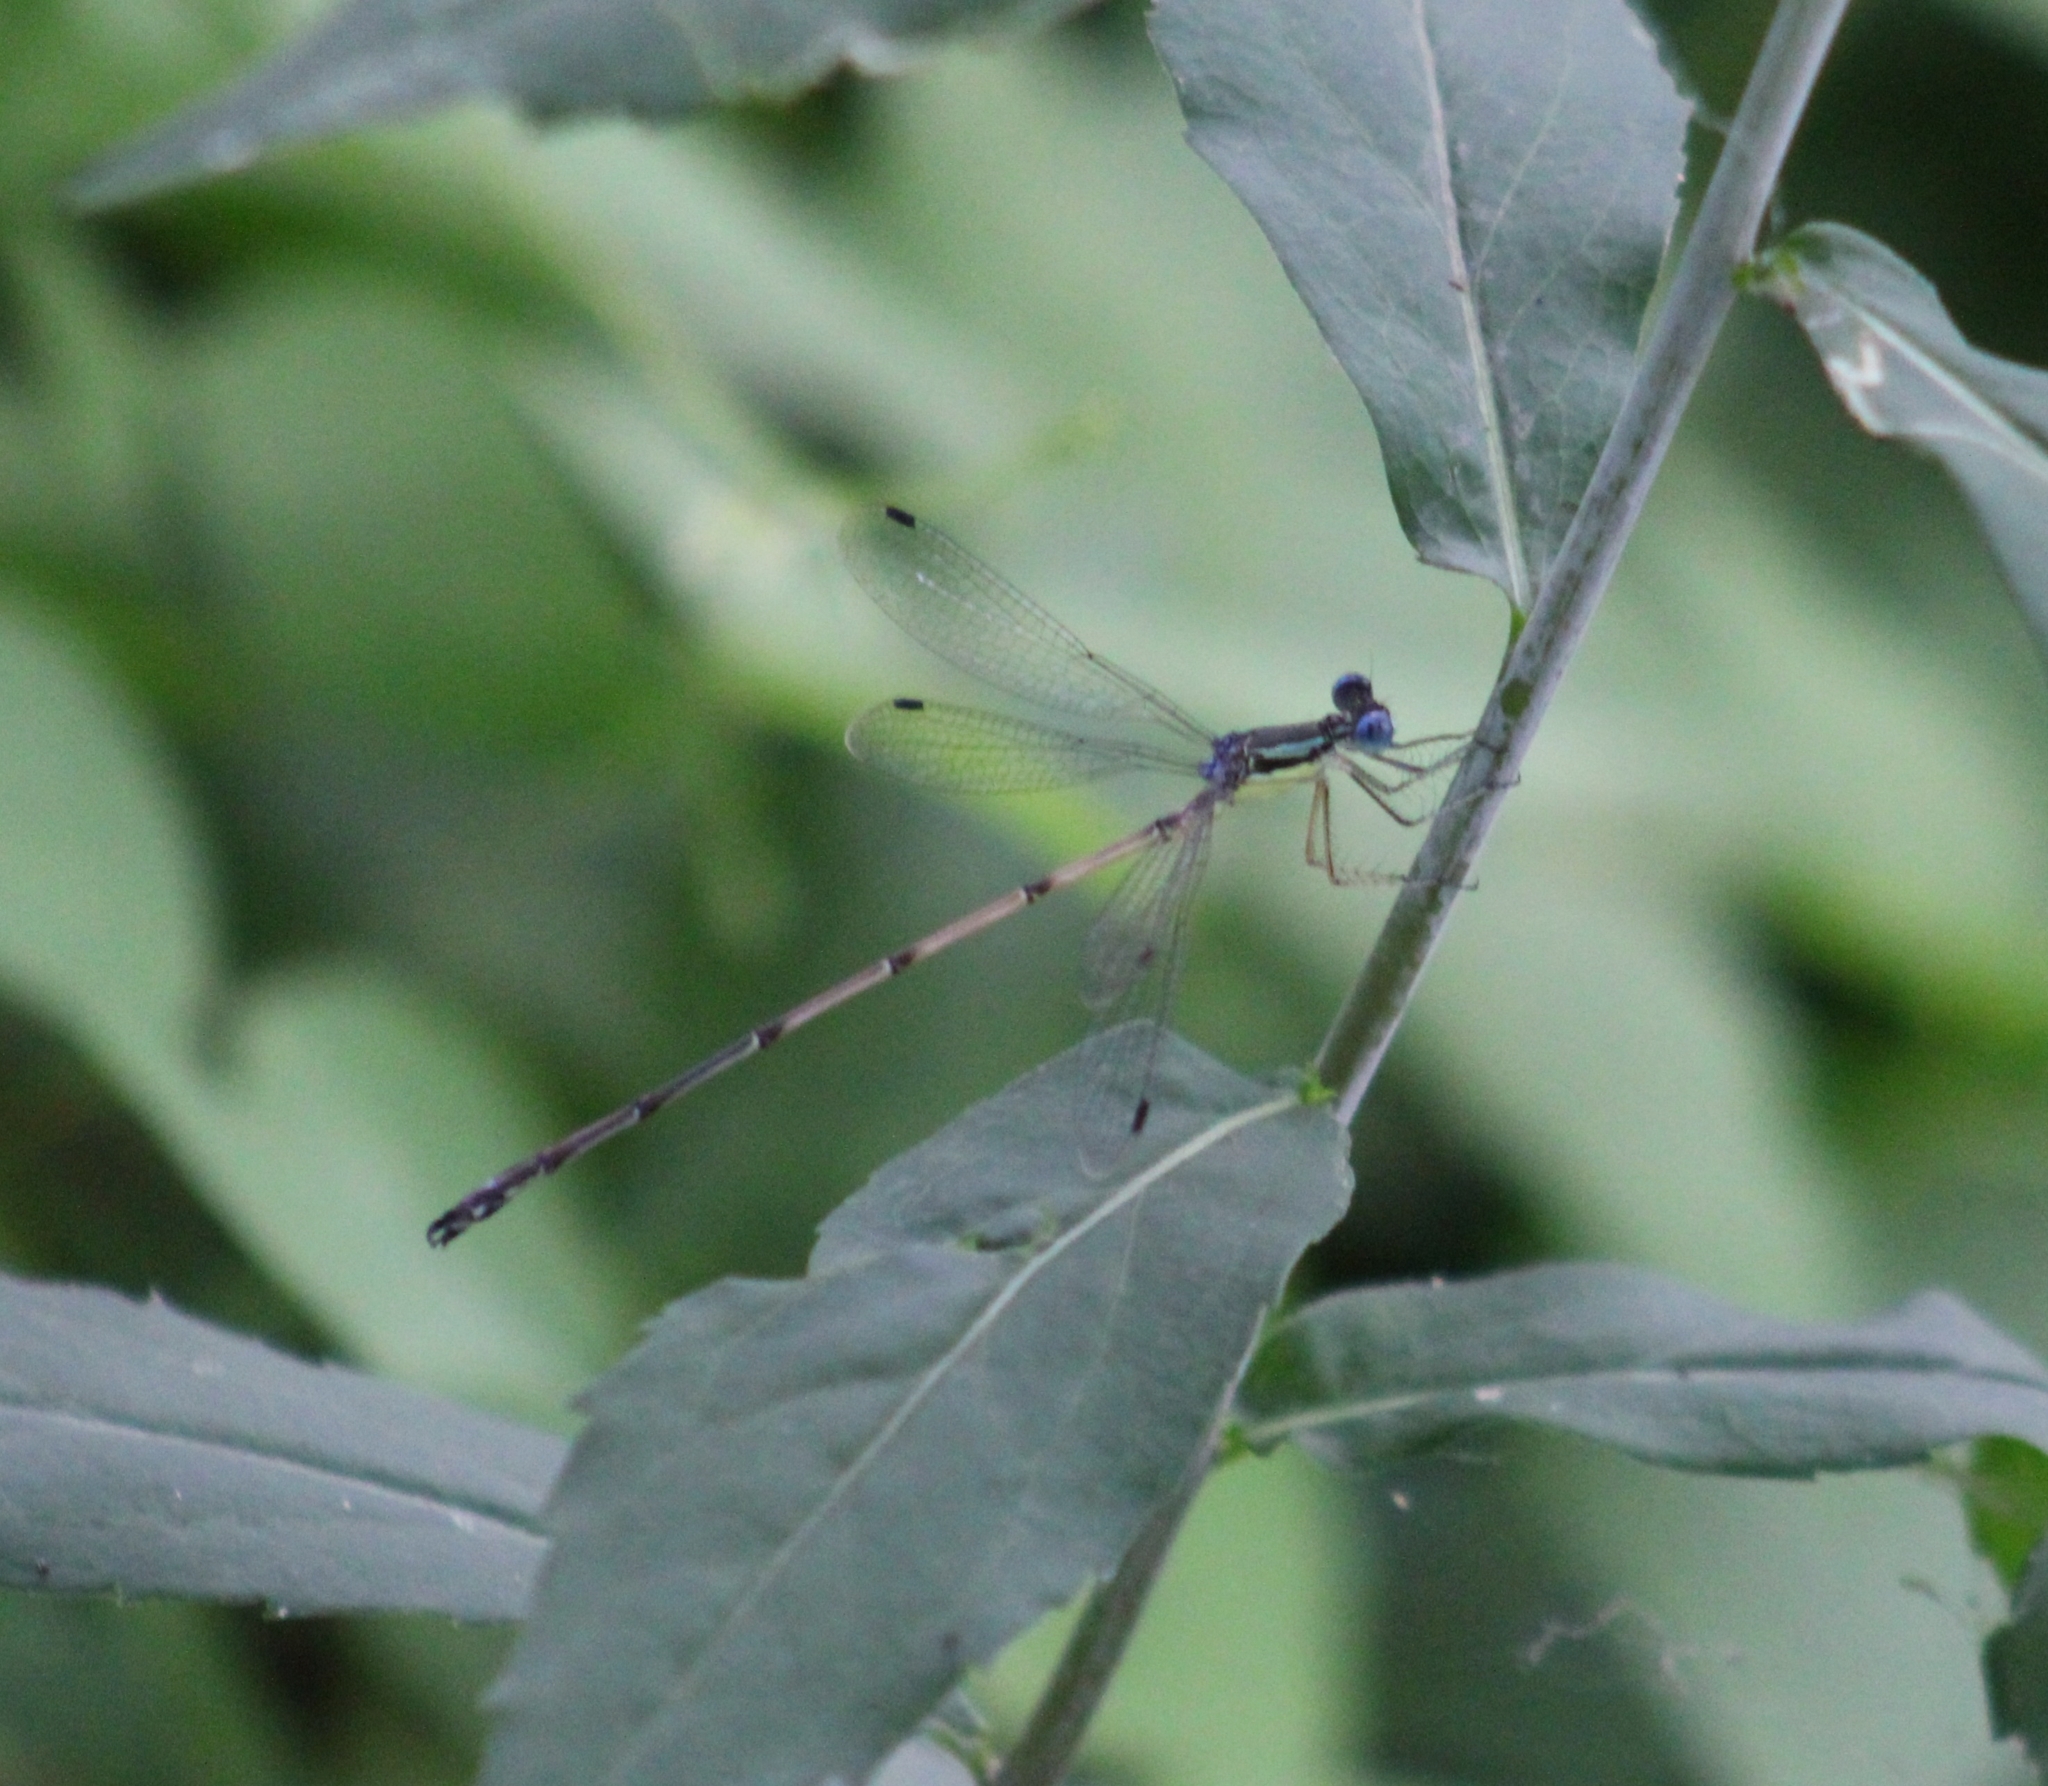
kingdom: Animalia
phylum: Arthropoda
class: Insecta
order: Odonata
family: Lestidae
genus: Lestes
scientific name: Lestes rectangularis
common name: Slender spreadwing
